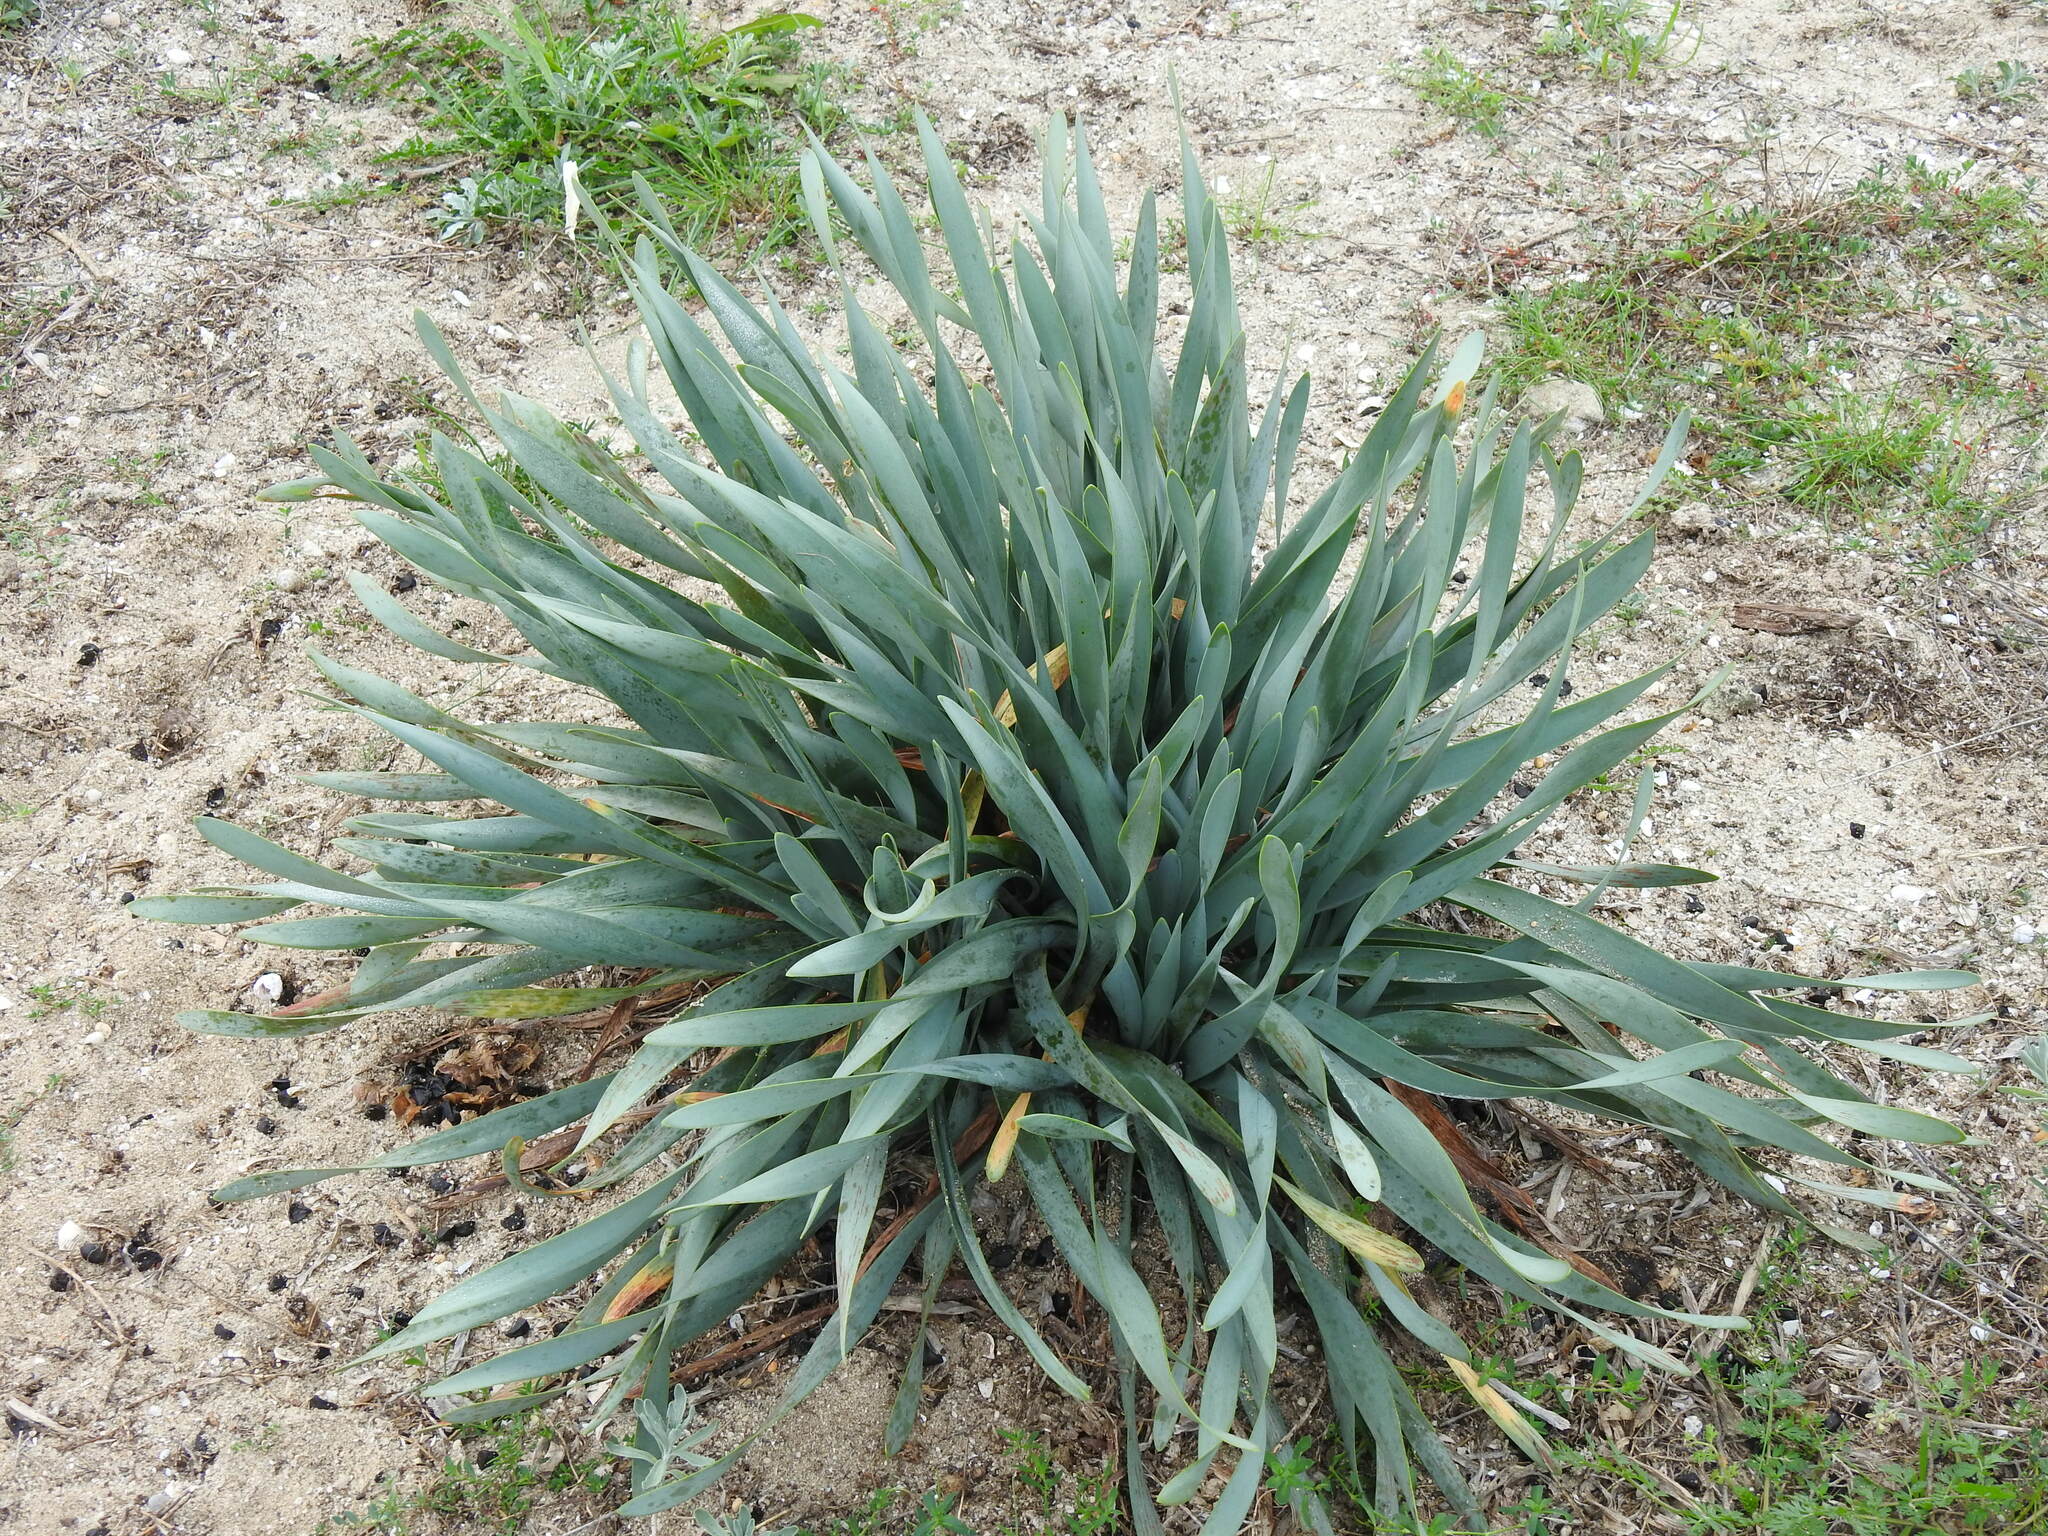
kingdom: Plantae
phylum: Tracheophyta
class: Liliopsida
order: Asparagales
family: Amaryllidaceae
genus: Pancratium
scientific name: Pancratium maritimum
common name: Sea-daffodil
